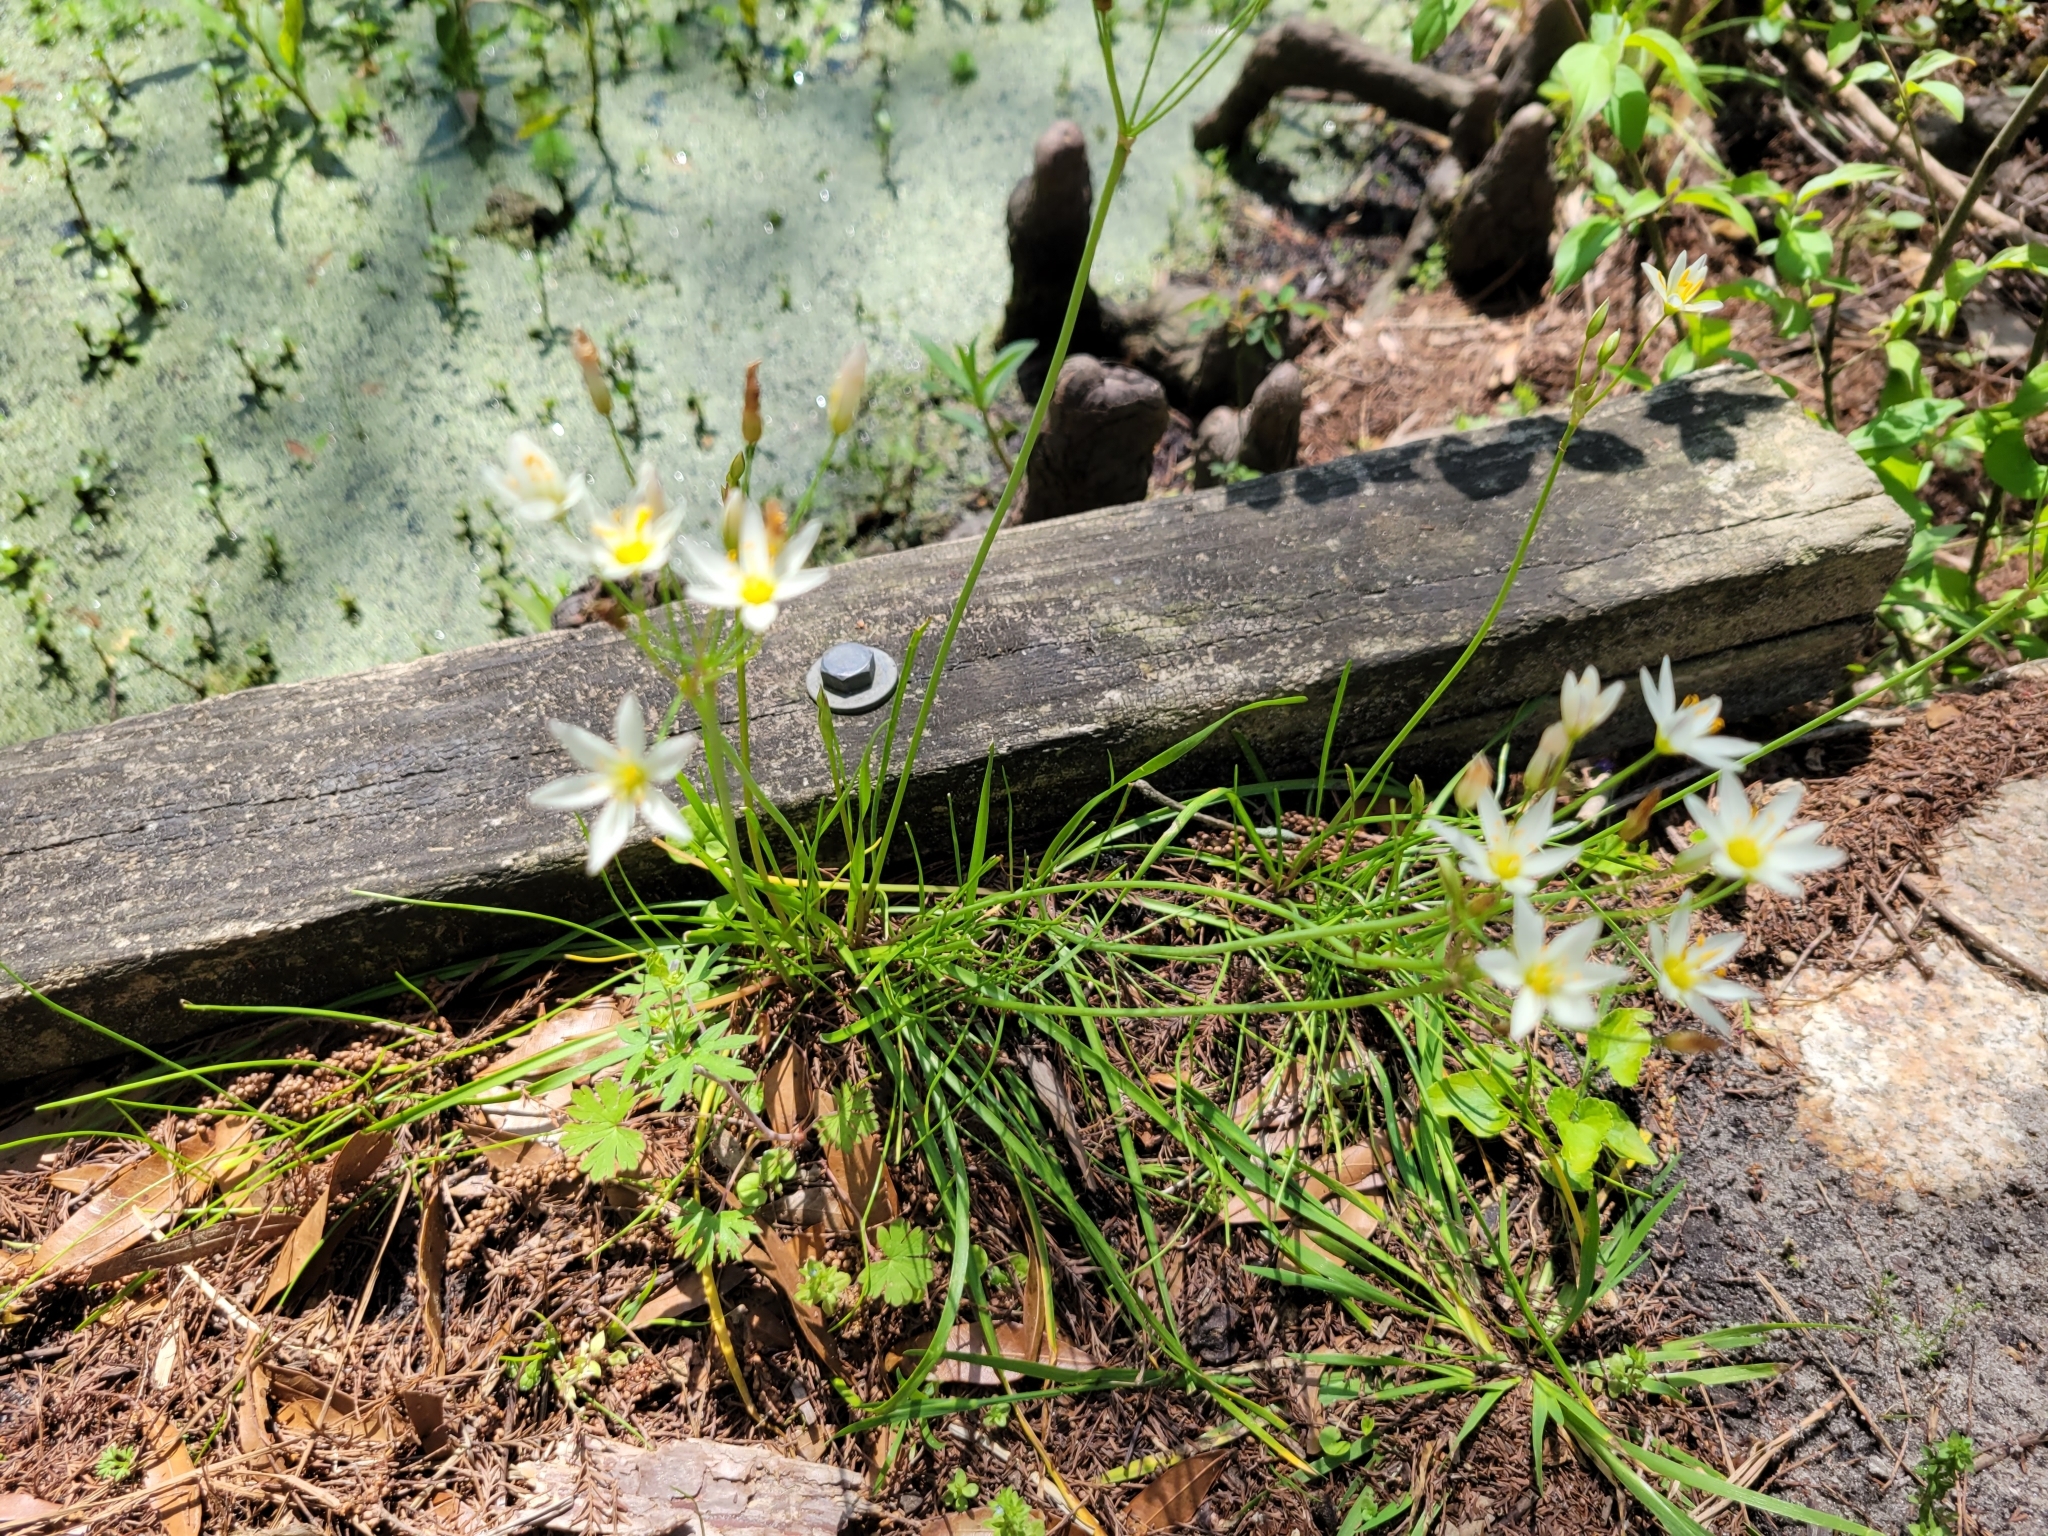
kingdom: Plantae
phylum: Tracheophyta
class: Liliopsida
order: Asparagales
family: Amaryllidaceae
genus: Nothoscordum
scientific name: Nothoscordum bivalve
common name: Crow-poison
